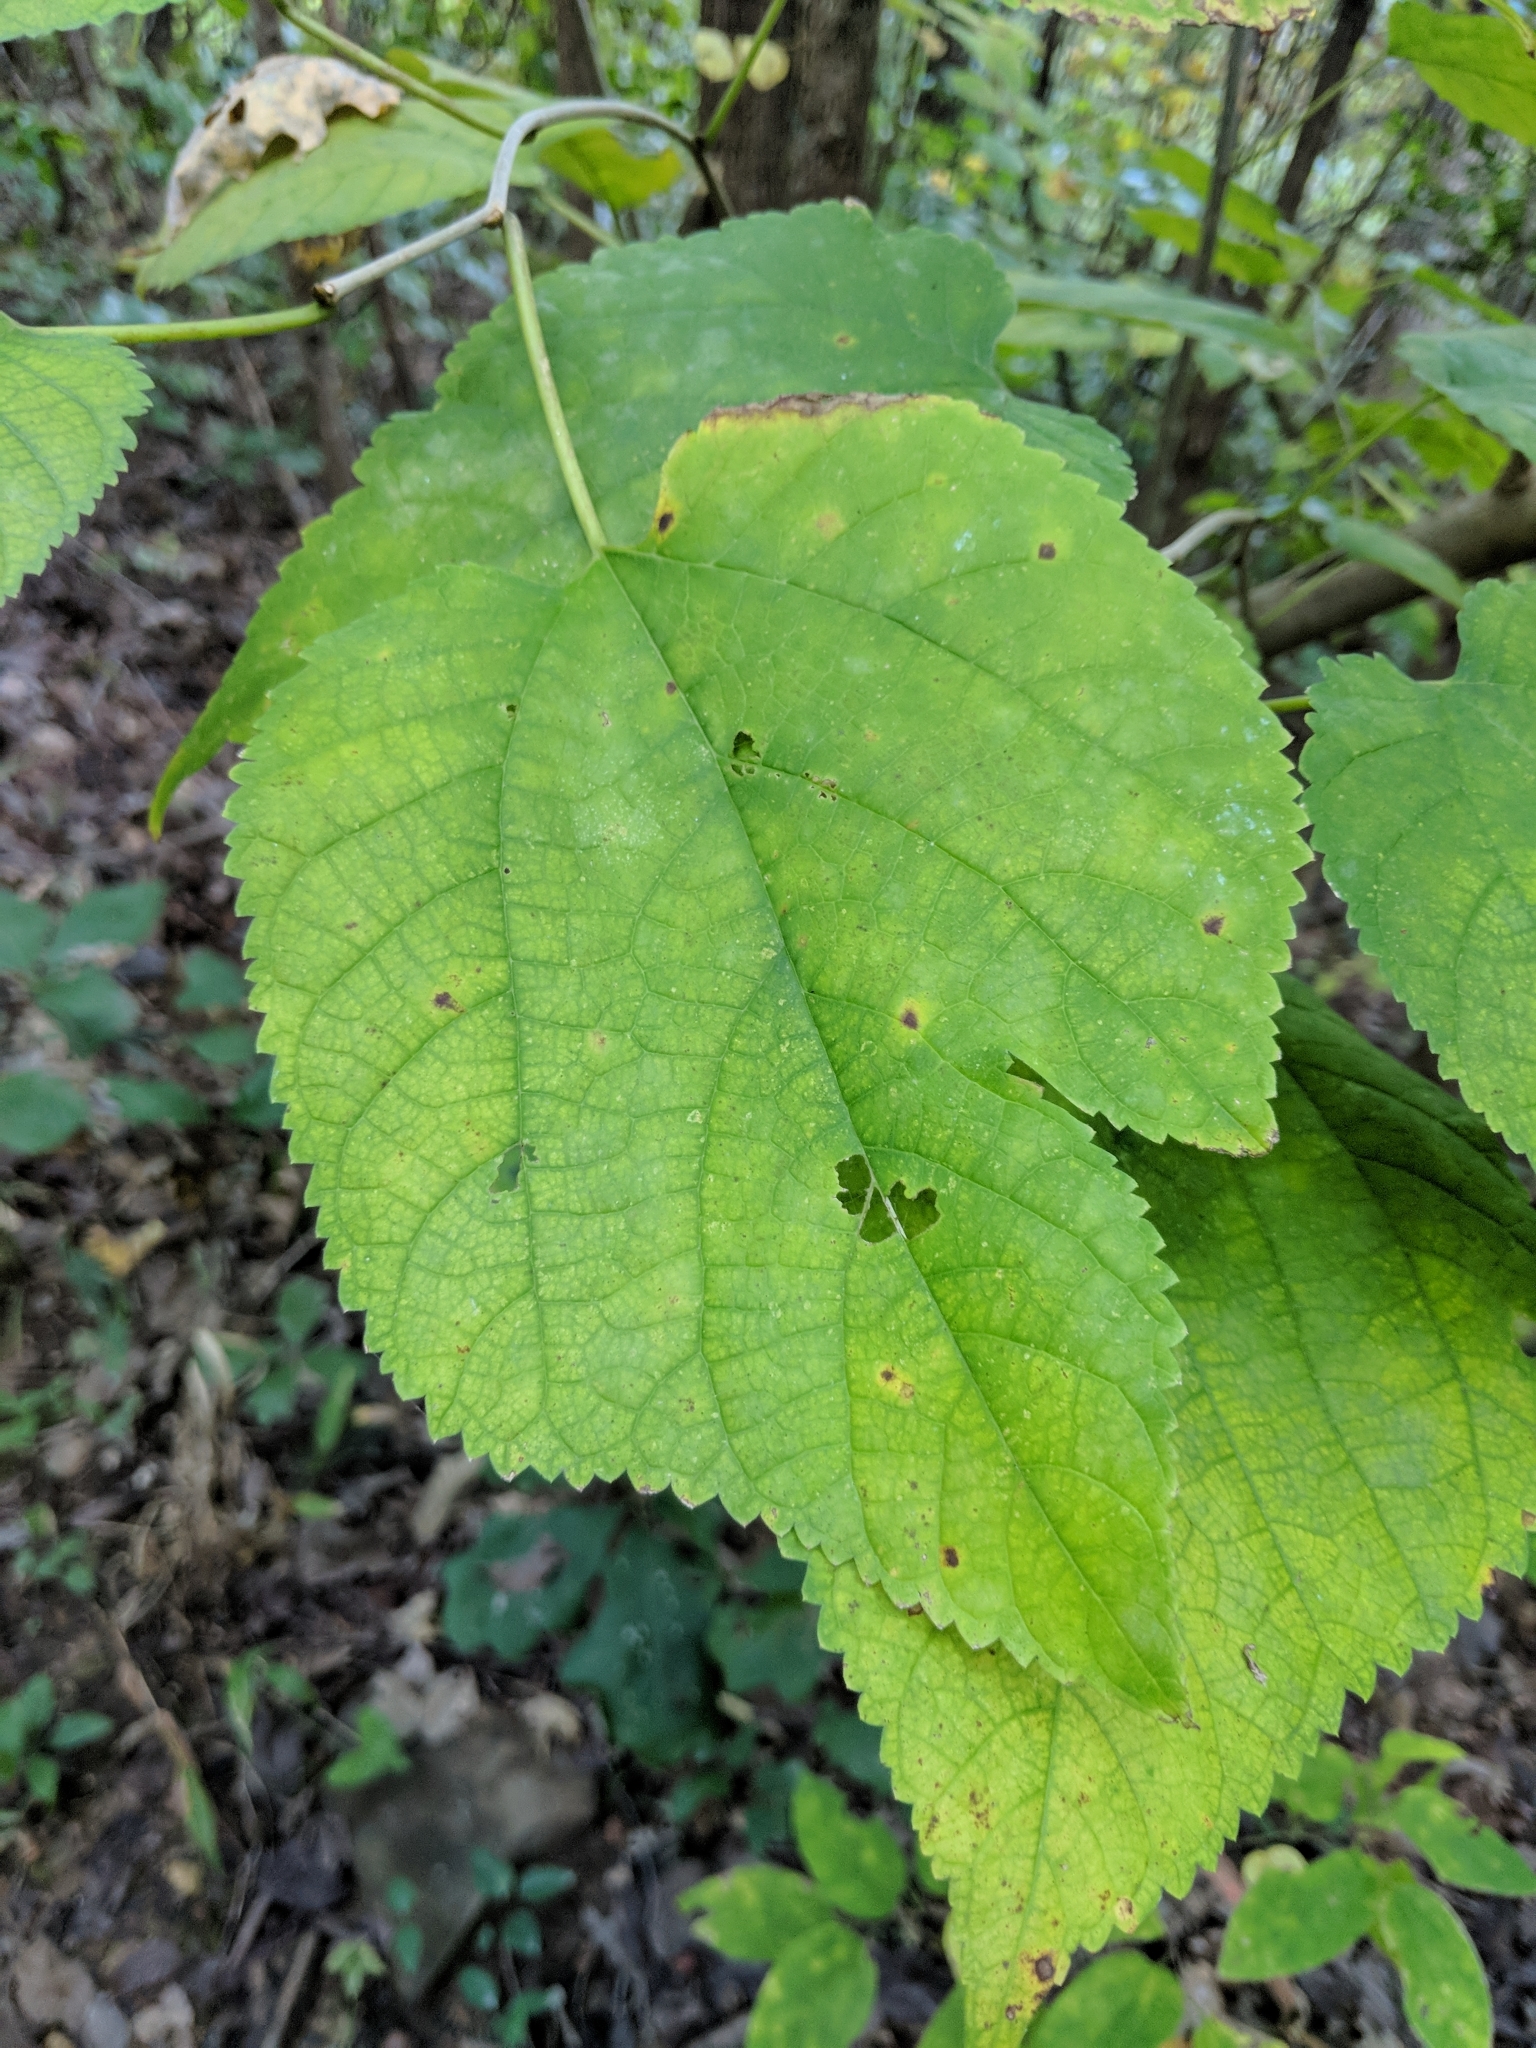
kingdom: Plantae
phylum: Tracheophyta
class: Magnoliopsida
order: Rosales
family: Moraceae
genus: Morus
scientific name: Morus rubra
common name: Red mulberry
